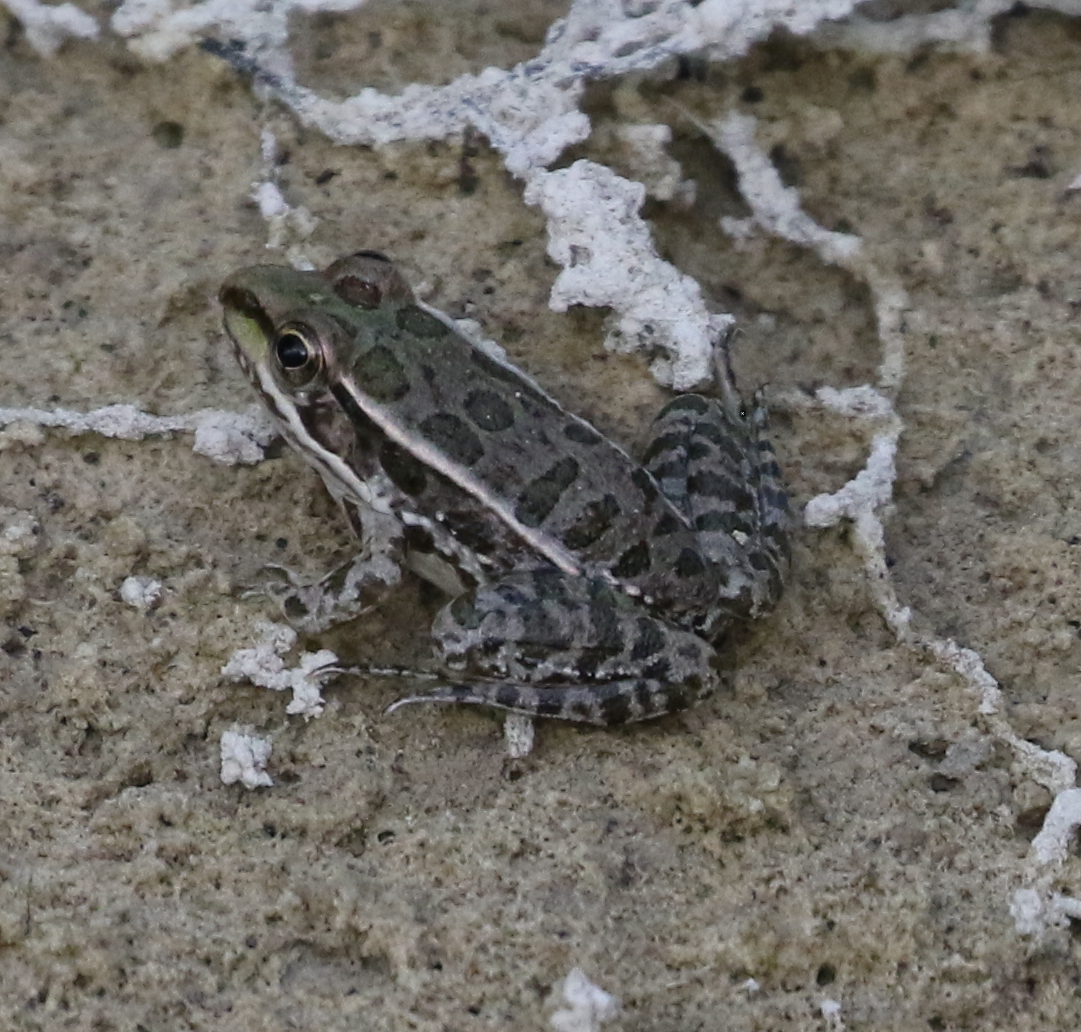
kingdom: Animalia
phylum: Chordata
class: Amphibia
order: Anura
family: Ranidae
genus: Lithobates
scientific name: Lithobates berlandieri
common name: Rio grande leopard frog
